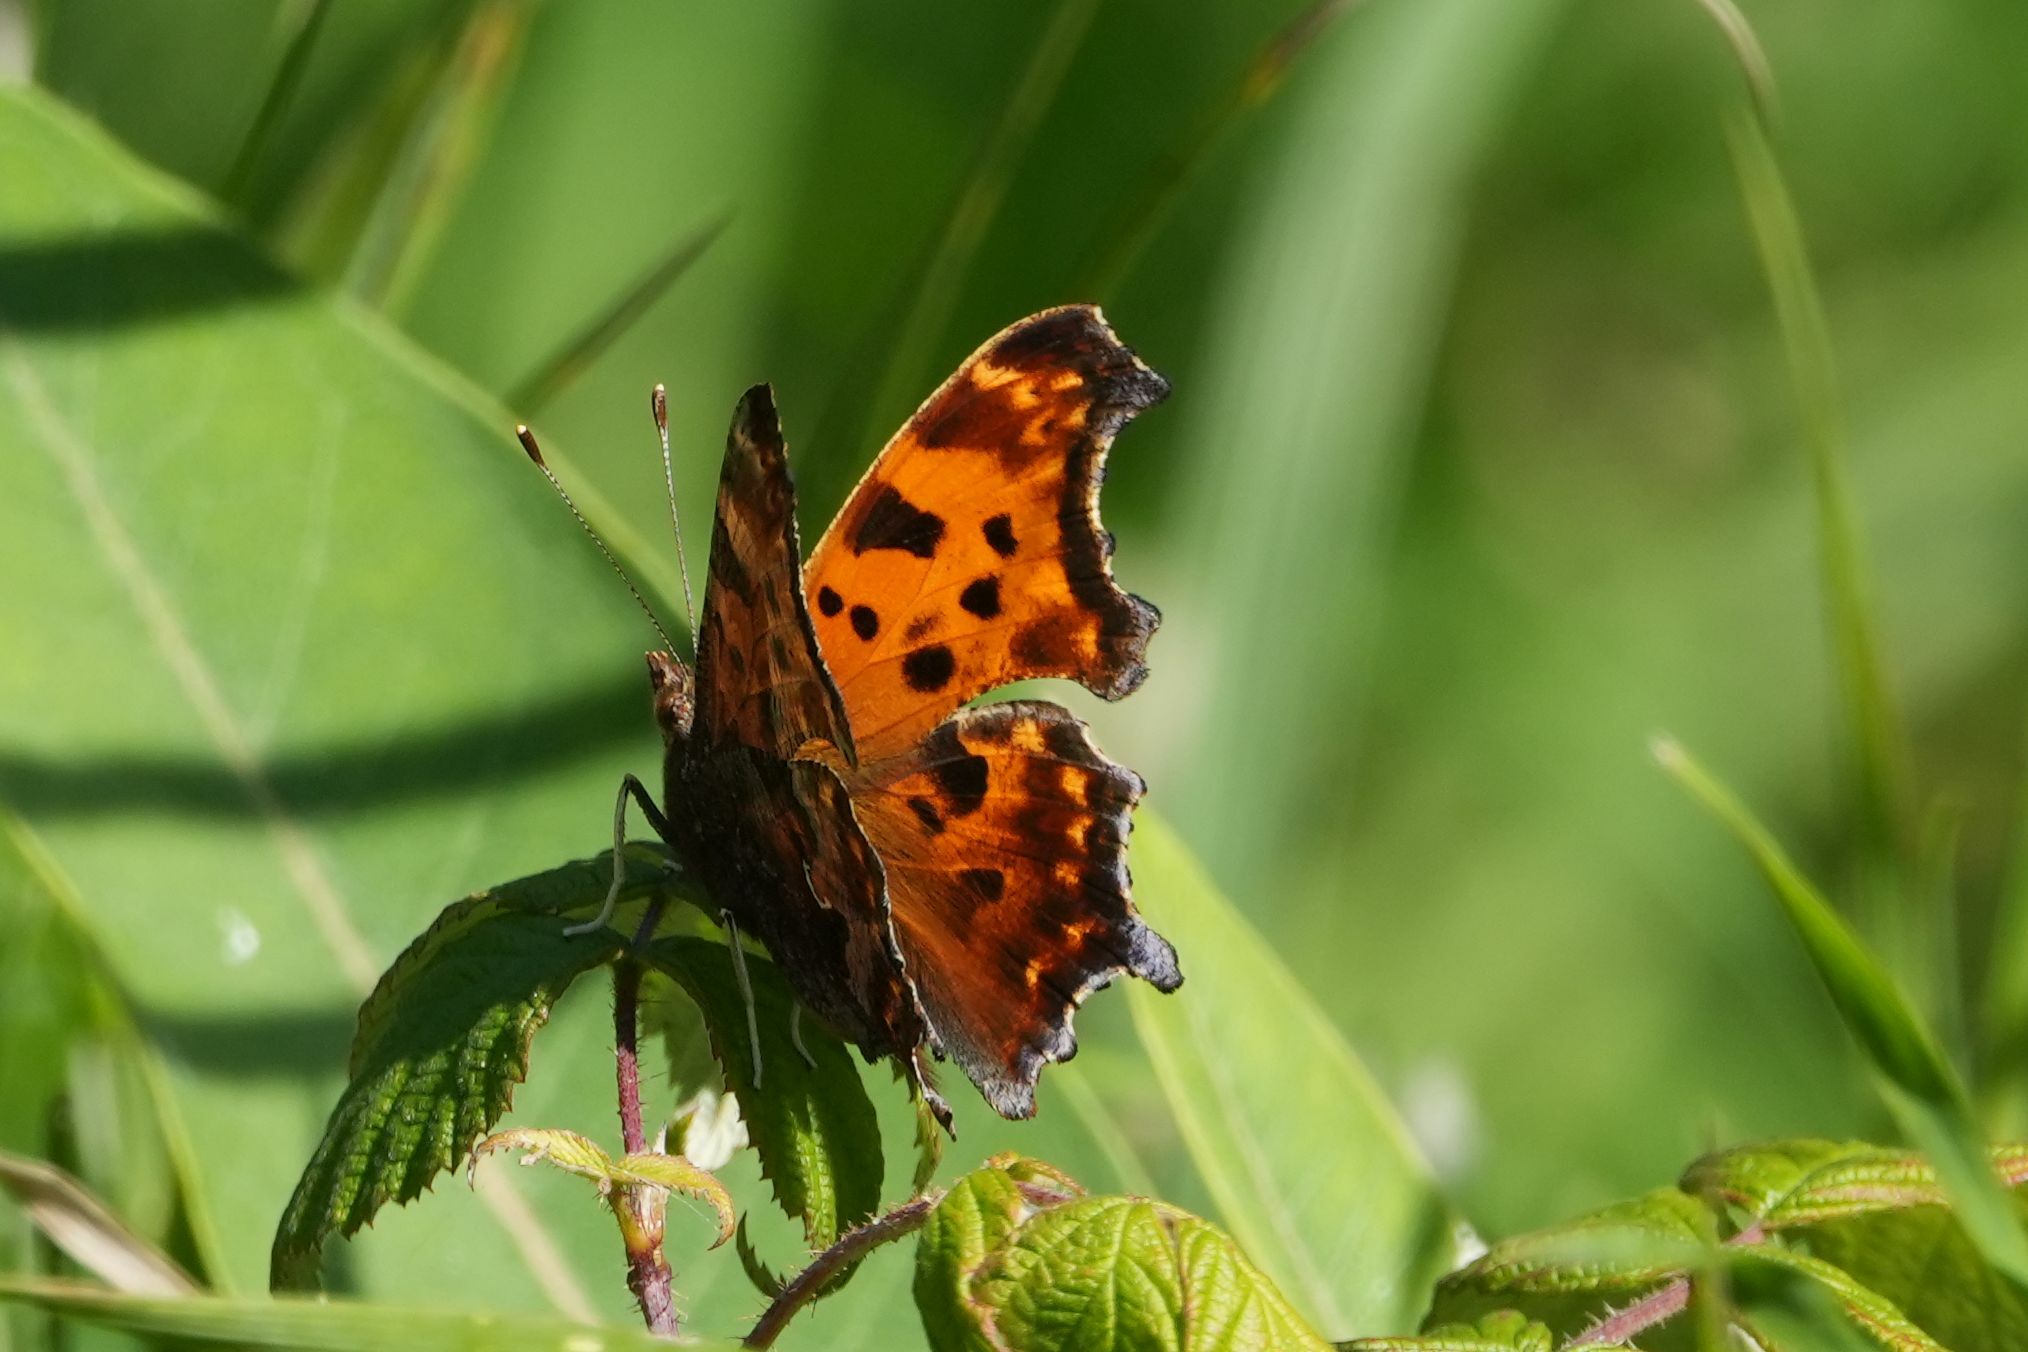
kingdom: Animalia
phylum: Arthropoda
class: Insecta
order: Lepidoptera
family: Nymphalidae
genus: Polygonia
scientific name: Polygonia comma
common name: Eastern comma
